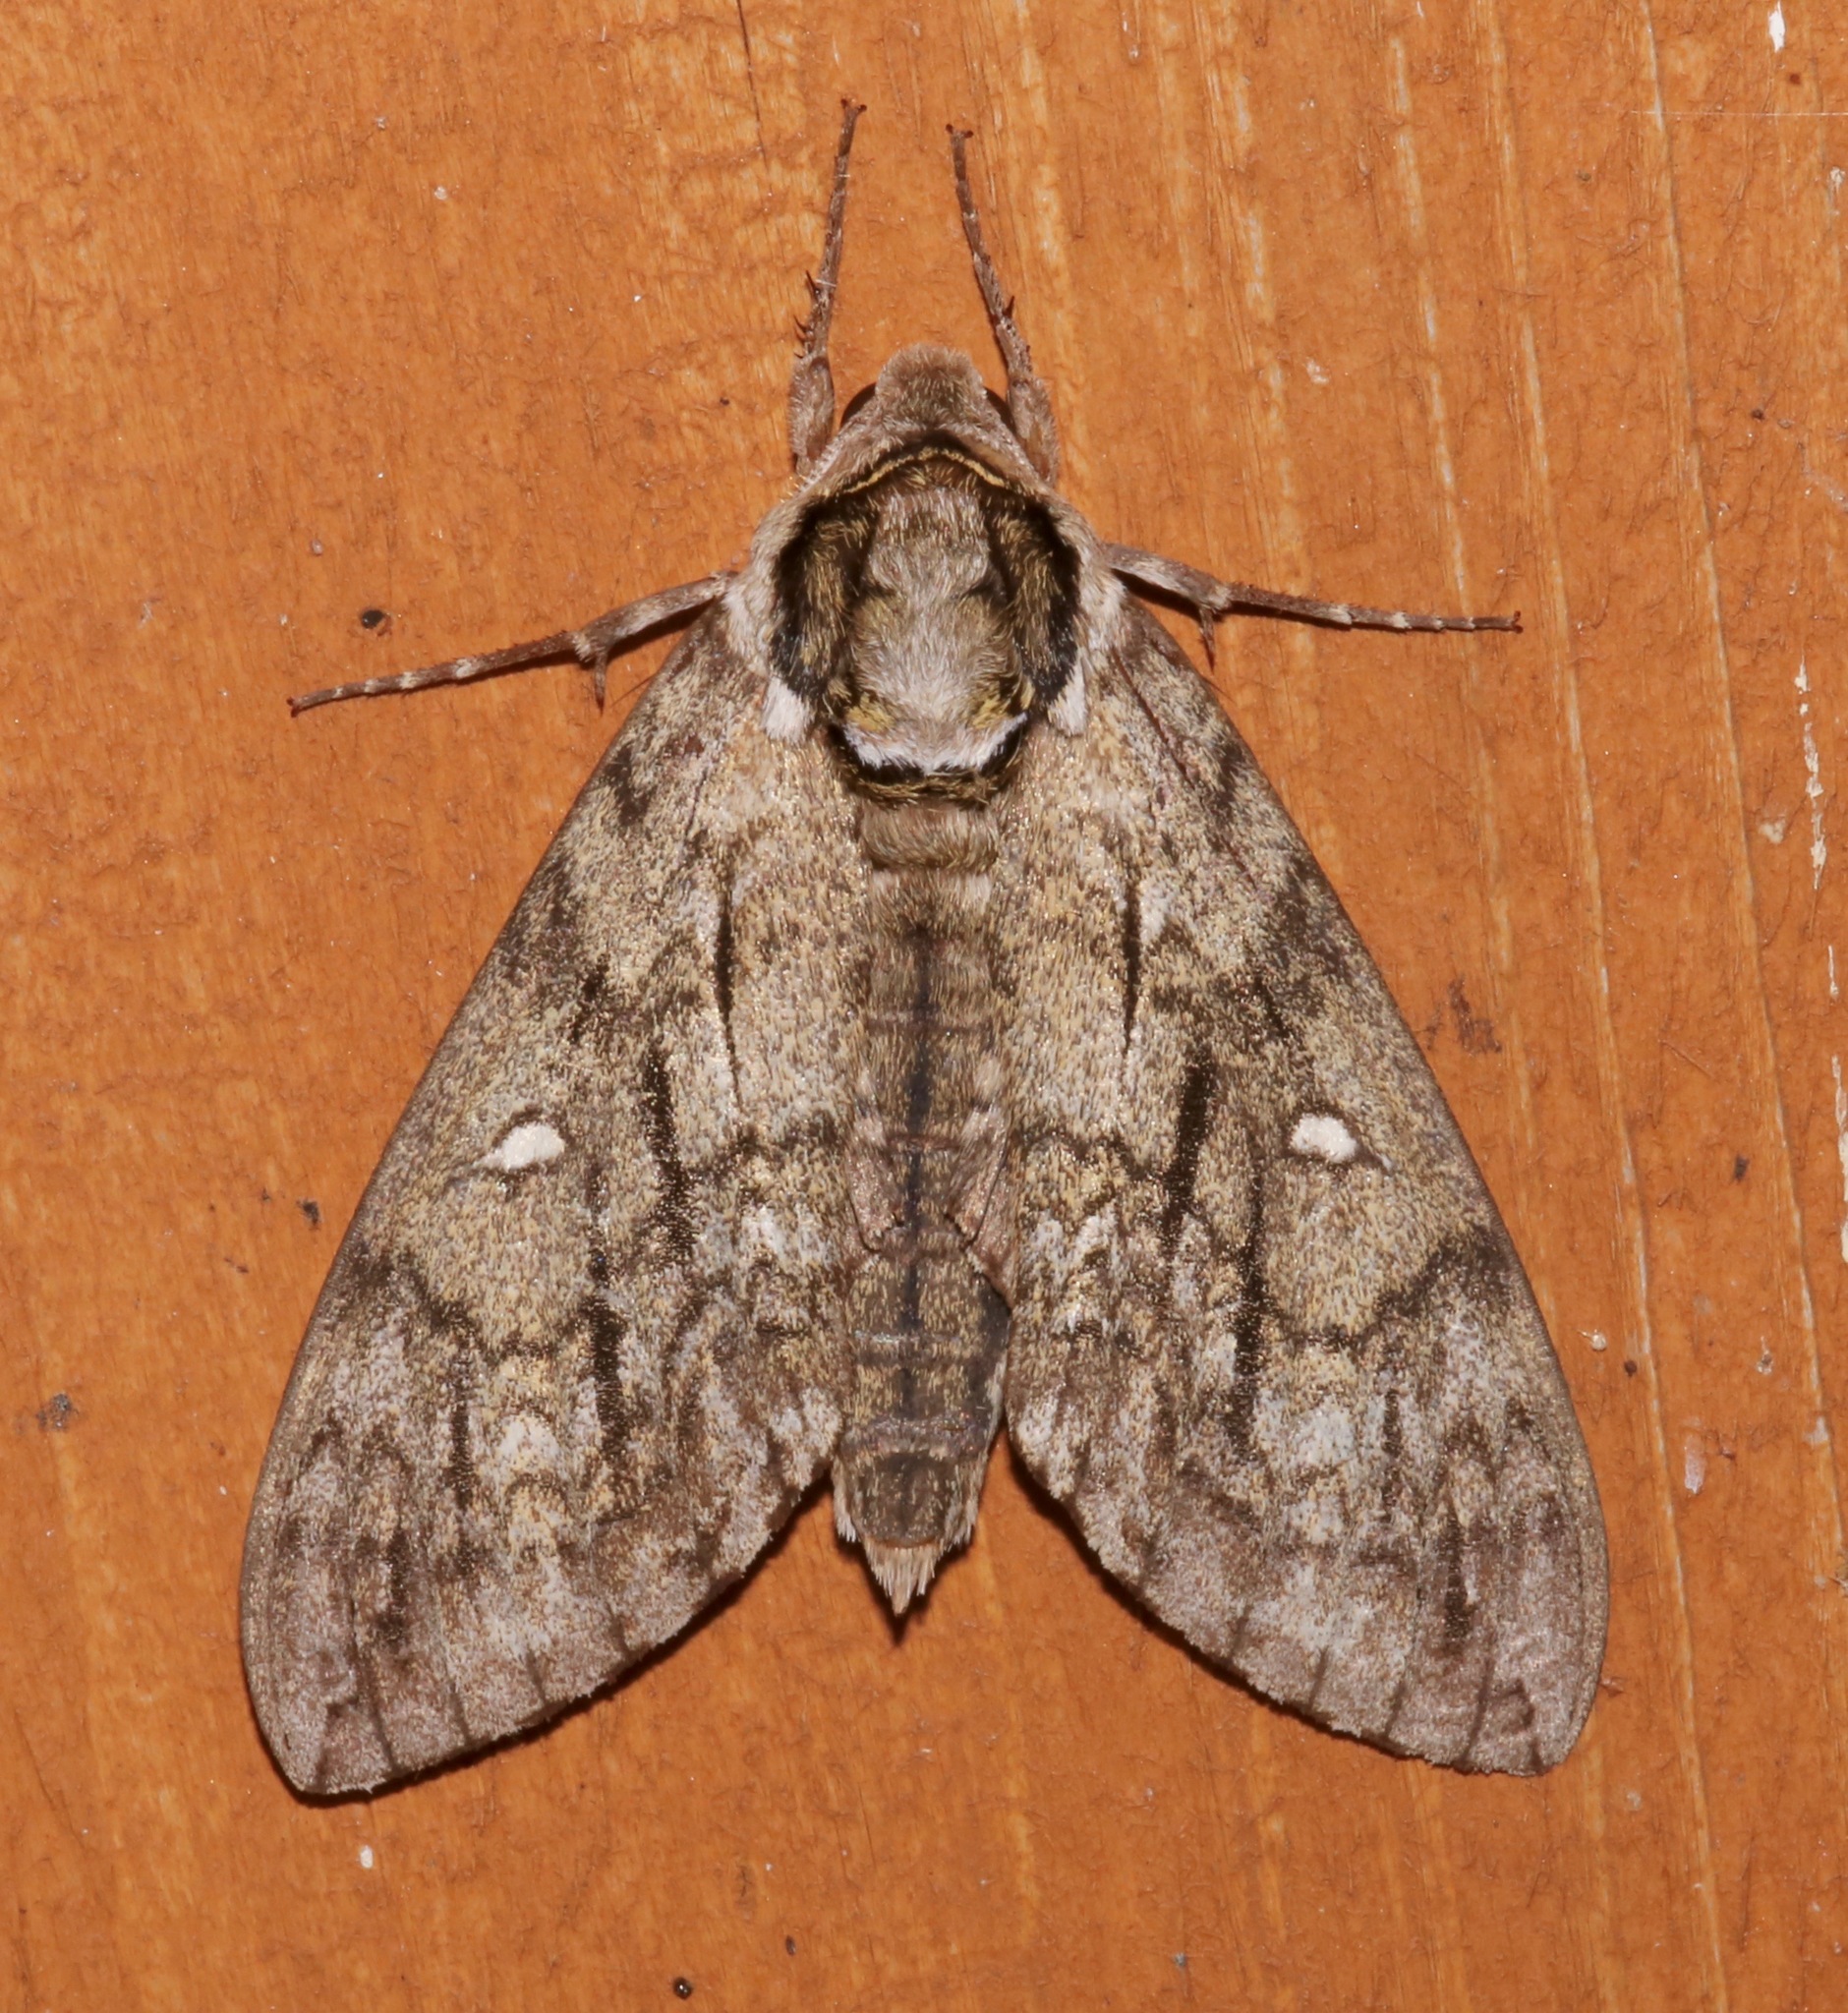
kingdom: Animalia
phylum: Arthropoda
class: Insecta
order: Lepidoptera
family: Sphingidae
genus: Ceratomia
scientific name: Ceratomia undulosa
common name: Waved sphinx
